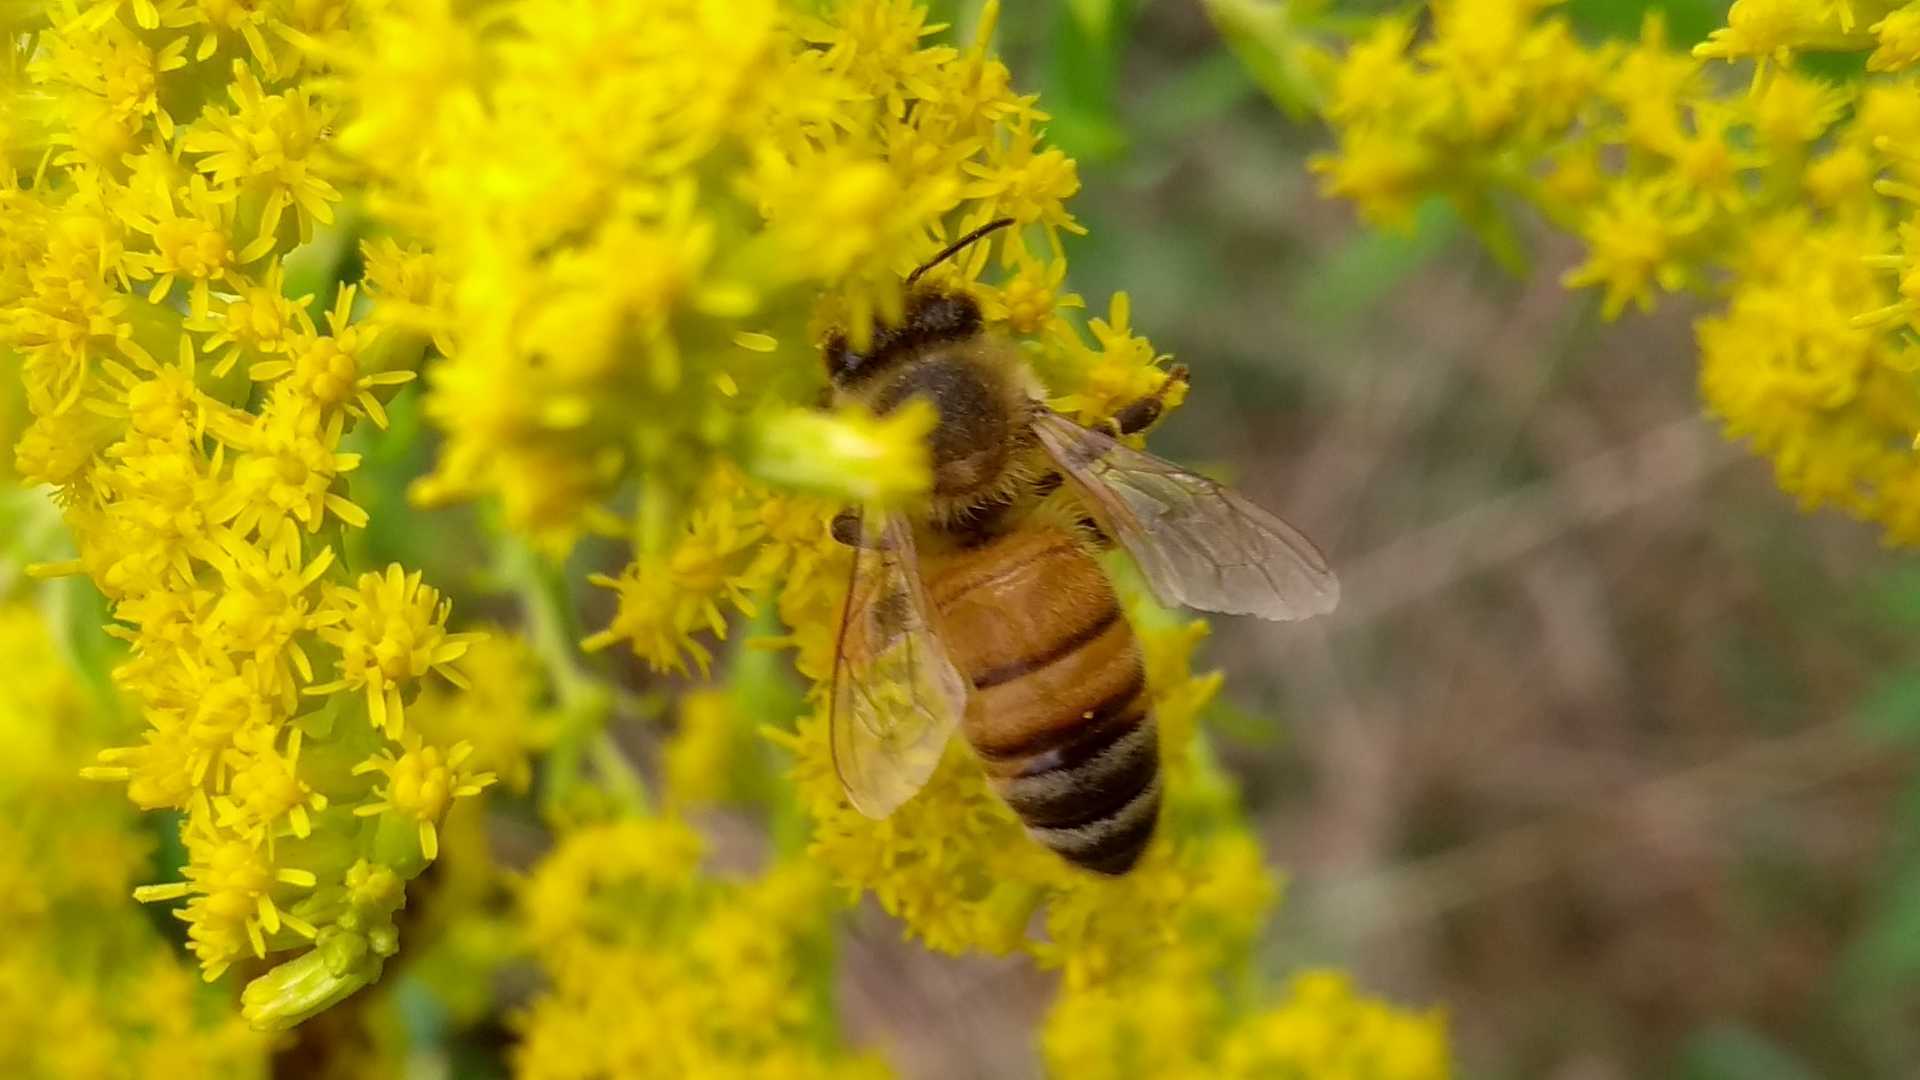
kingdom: Animalia
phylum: Arthropoda
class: Insecta
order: Hymenoptera
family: Apidae
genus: Apis
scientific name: Apis mellifera
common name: Honey bee
